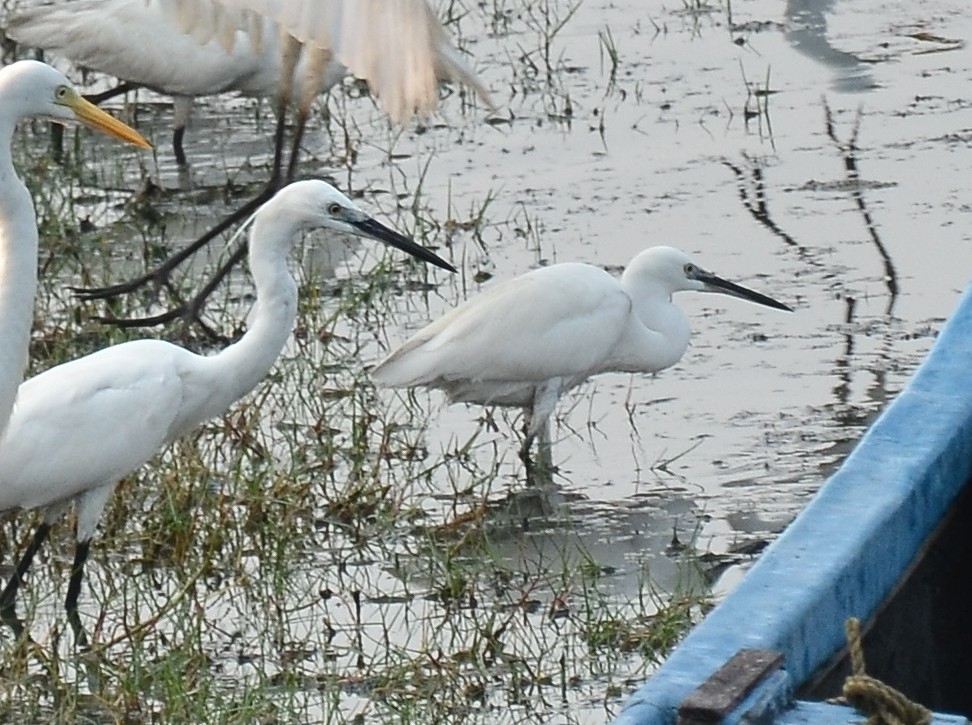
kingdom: Animalia
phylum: Chordata
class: Aves
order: Pelecaniformes
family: Ardeidae
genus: Egretta
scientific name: Egretta garzetta
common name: Little egret
